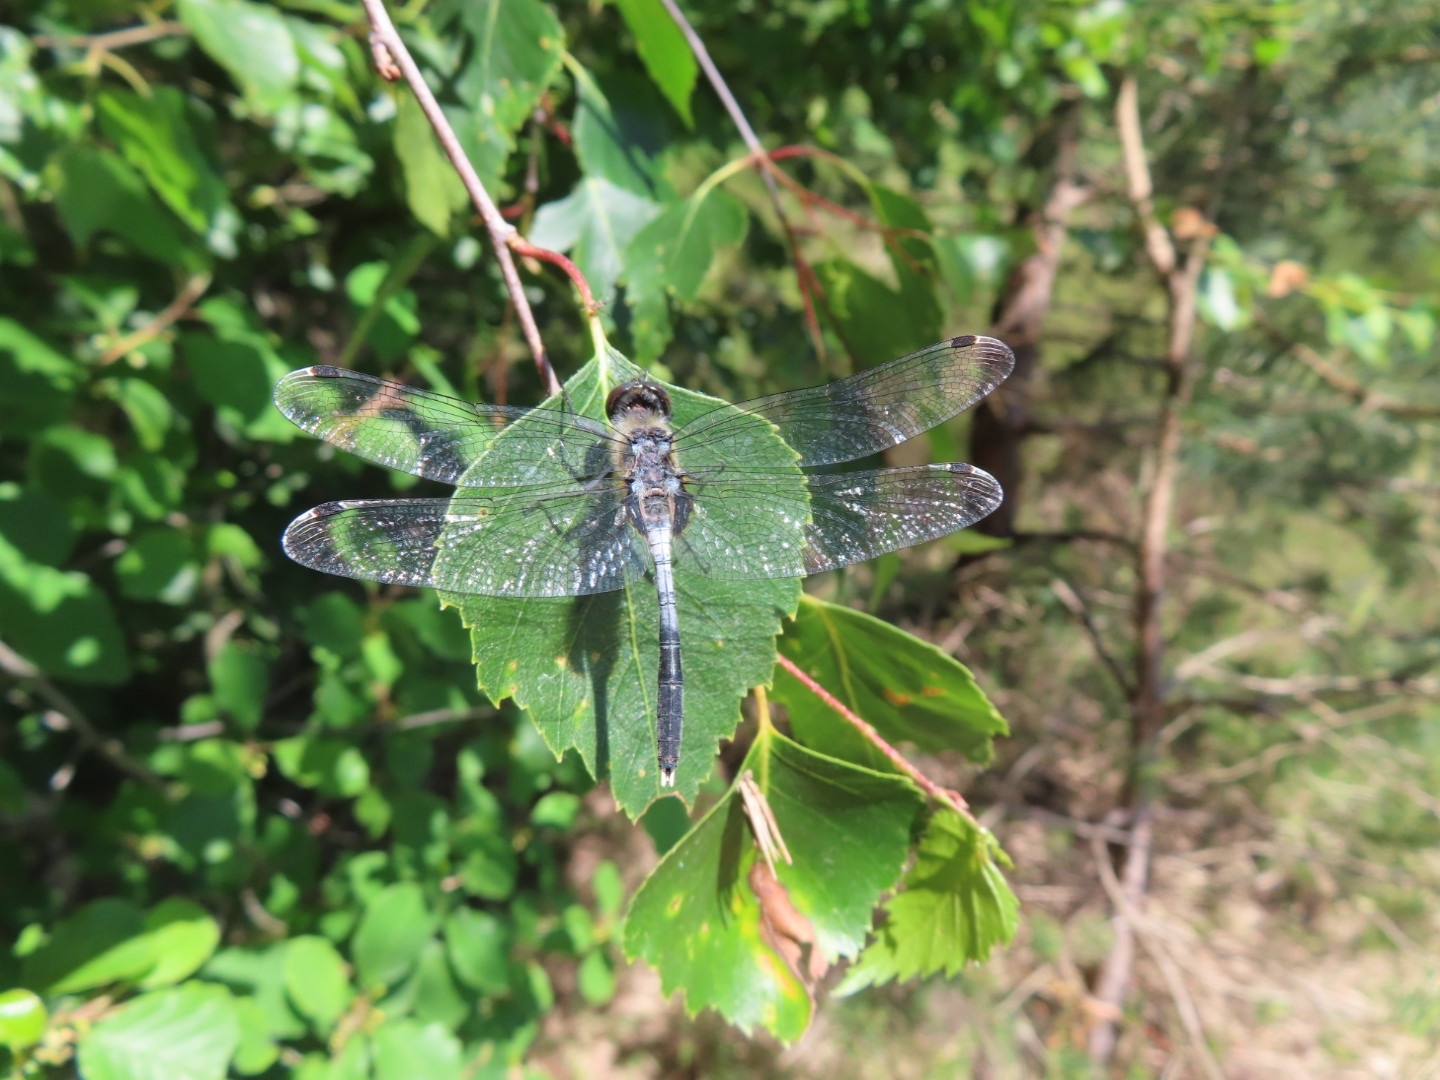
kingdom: Animalia
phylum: Arthropoda
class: Insecta
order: Odonata
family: Libellulidae
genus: Leucorrhinia
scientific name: Leucorrhinia albifrons
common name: Dark whiteface
